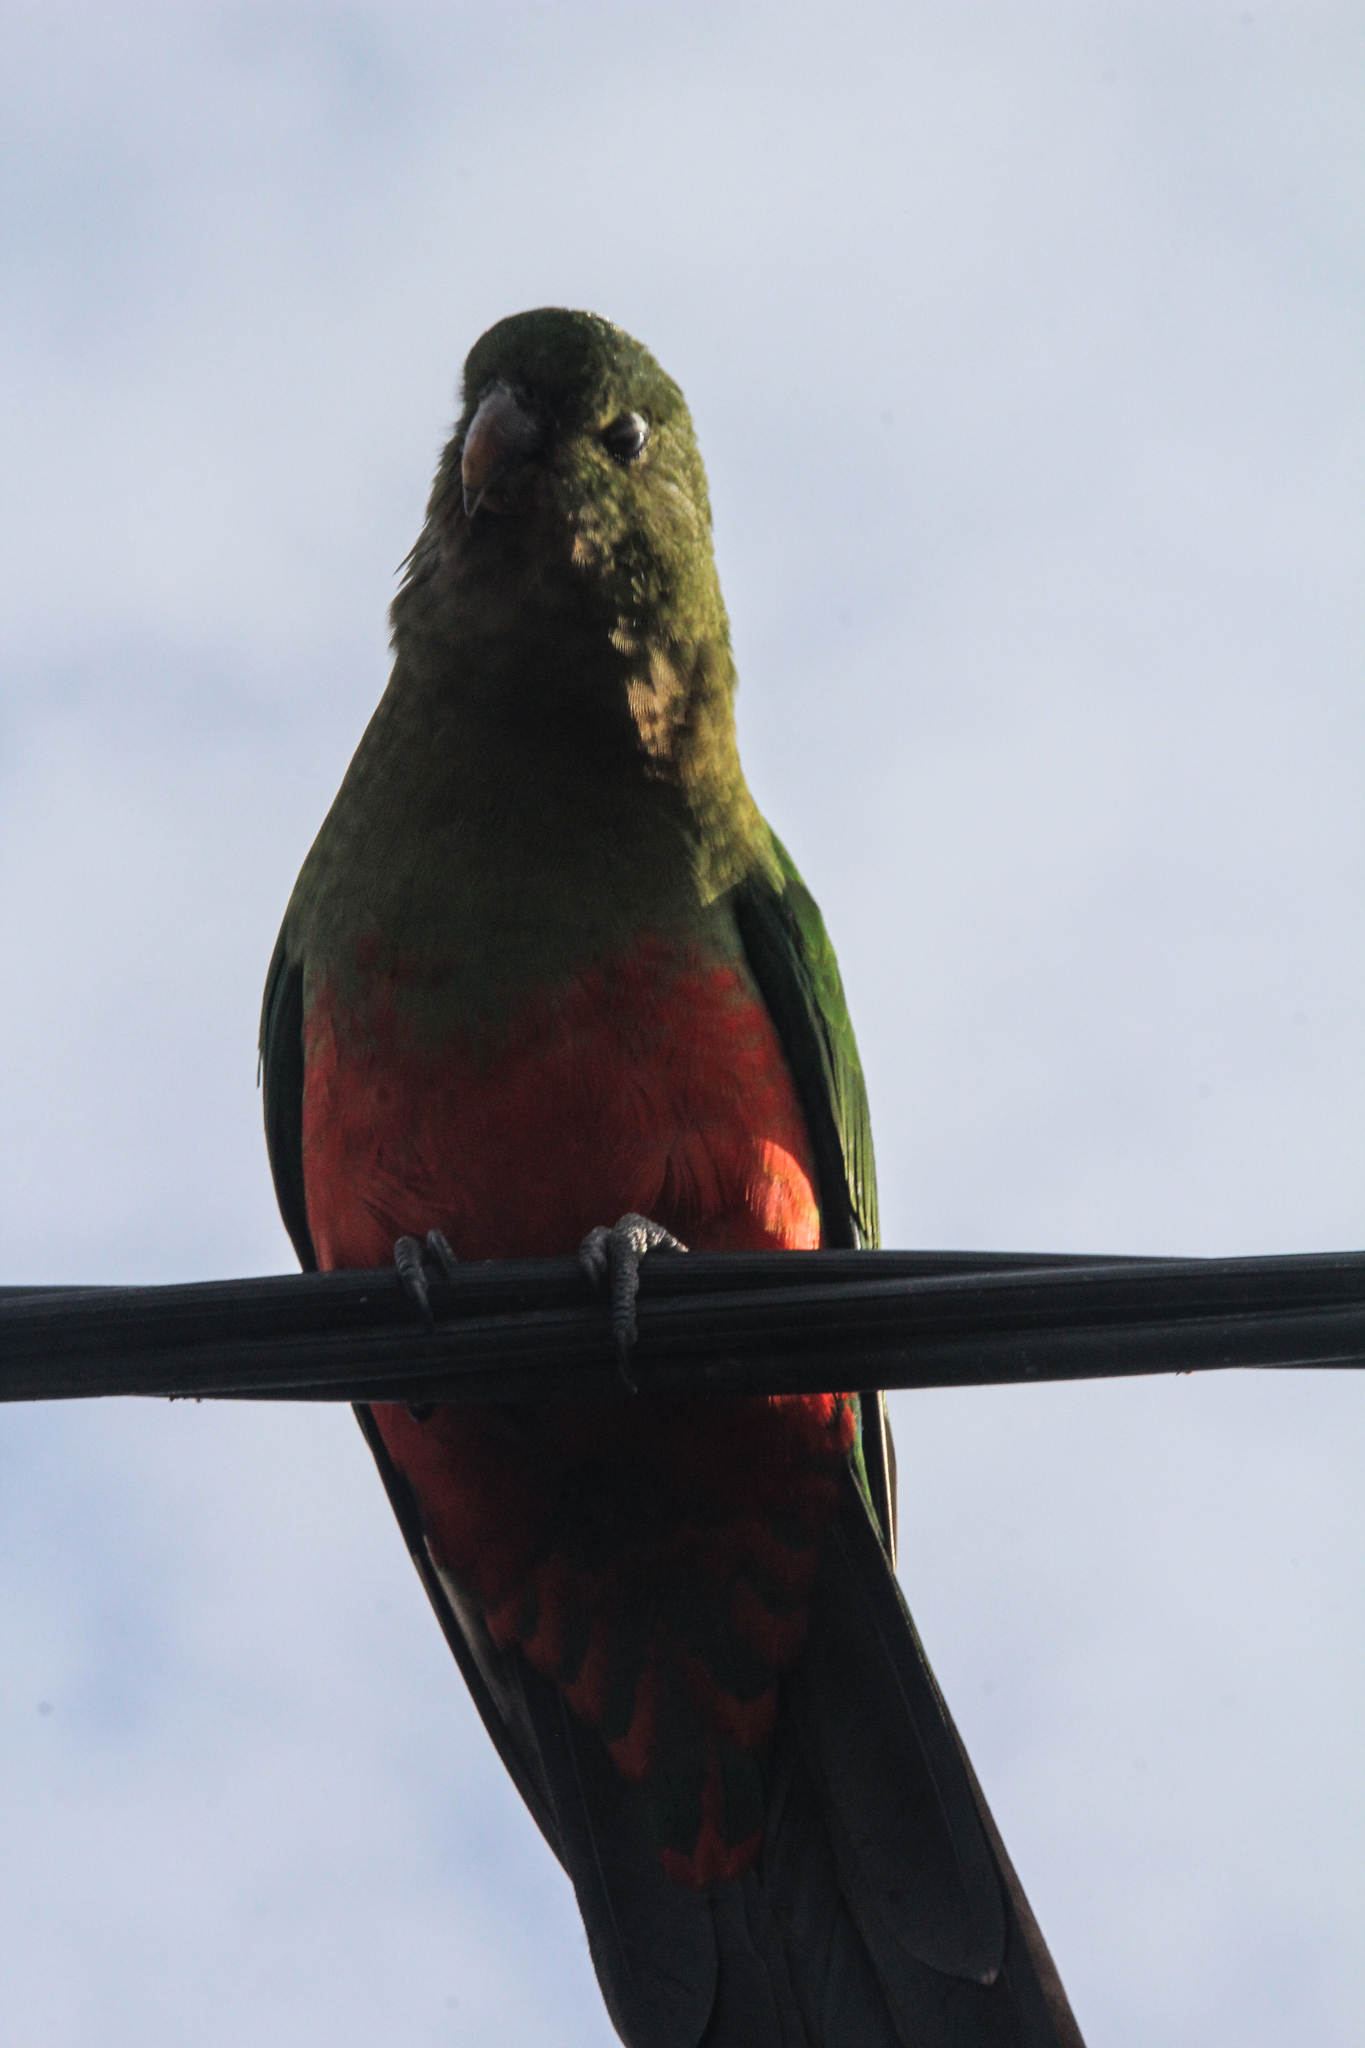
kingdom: Animalia
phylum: Chordata
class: Aves
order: Psittaciformes
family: Psittacidae
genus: Alisterus
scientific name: Alisterus scapularis
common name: Australian king parrot
